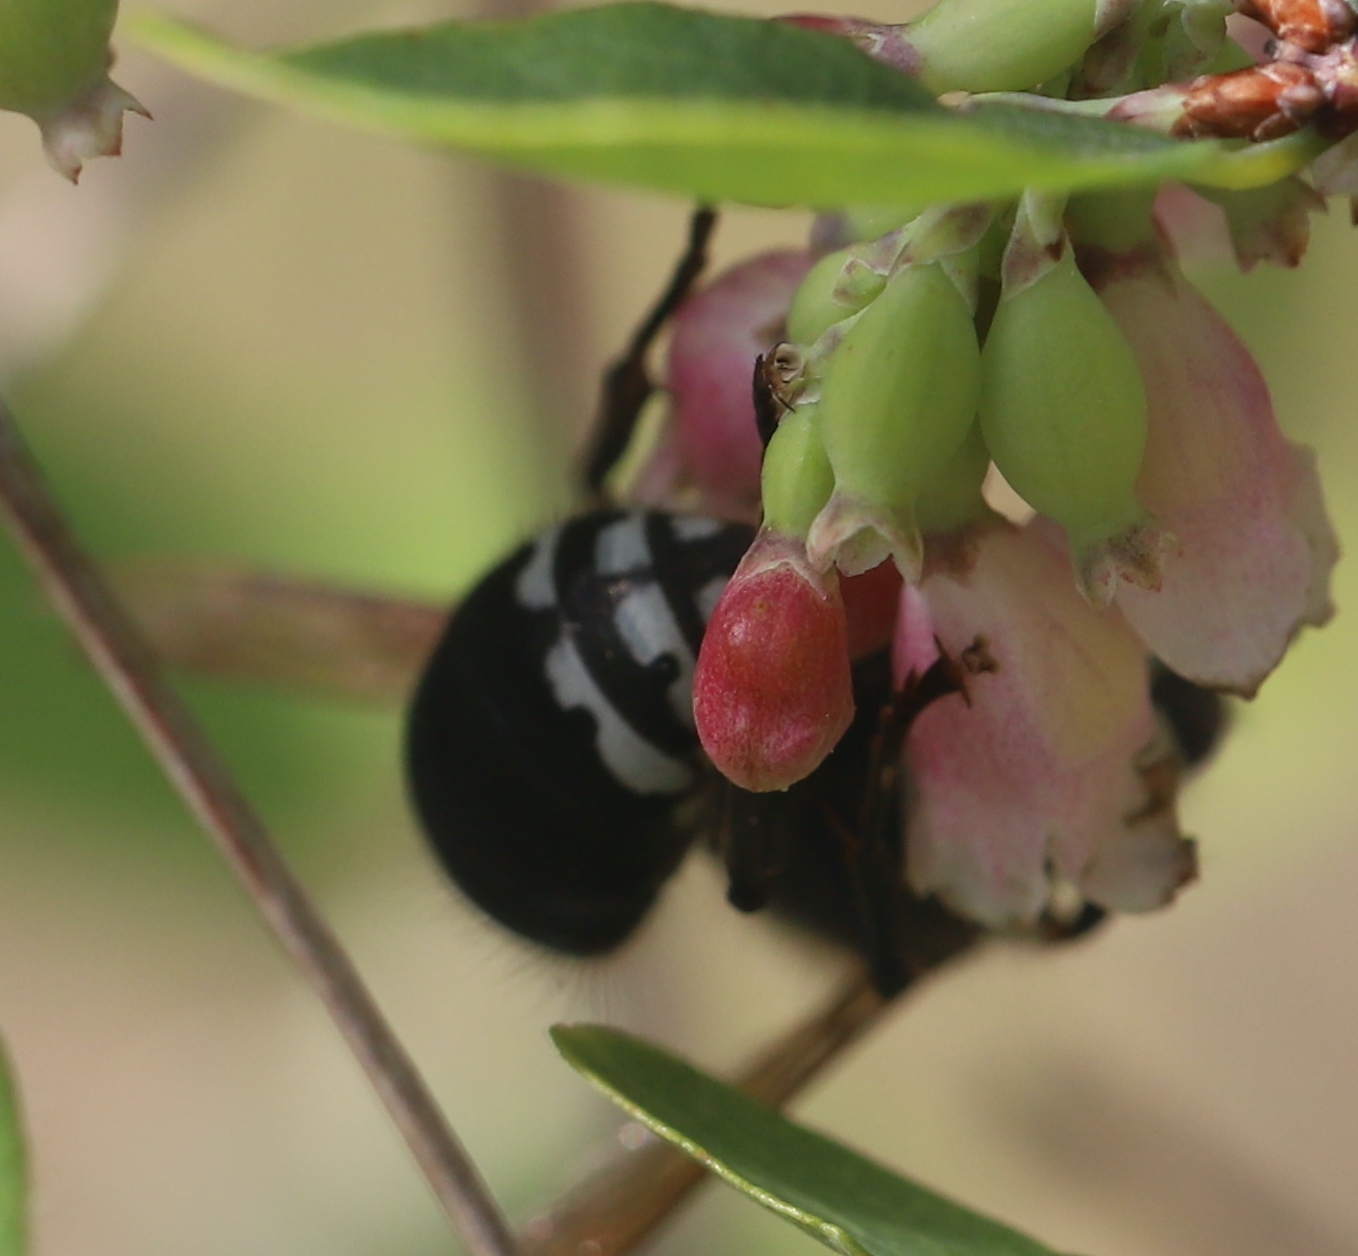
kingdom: Animalia
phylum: Arthropoda
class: Insecta
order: Hymenoptera
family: Vespidae
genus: Dolichovespula
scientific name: Dolichovespula maculata
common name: Bald-faced hornet
